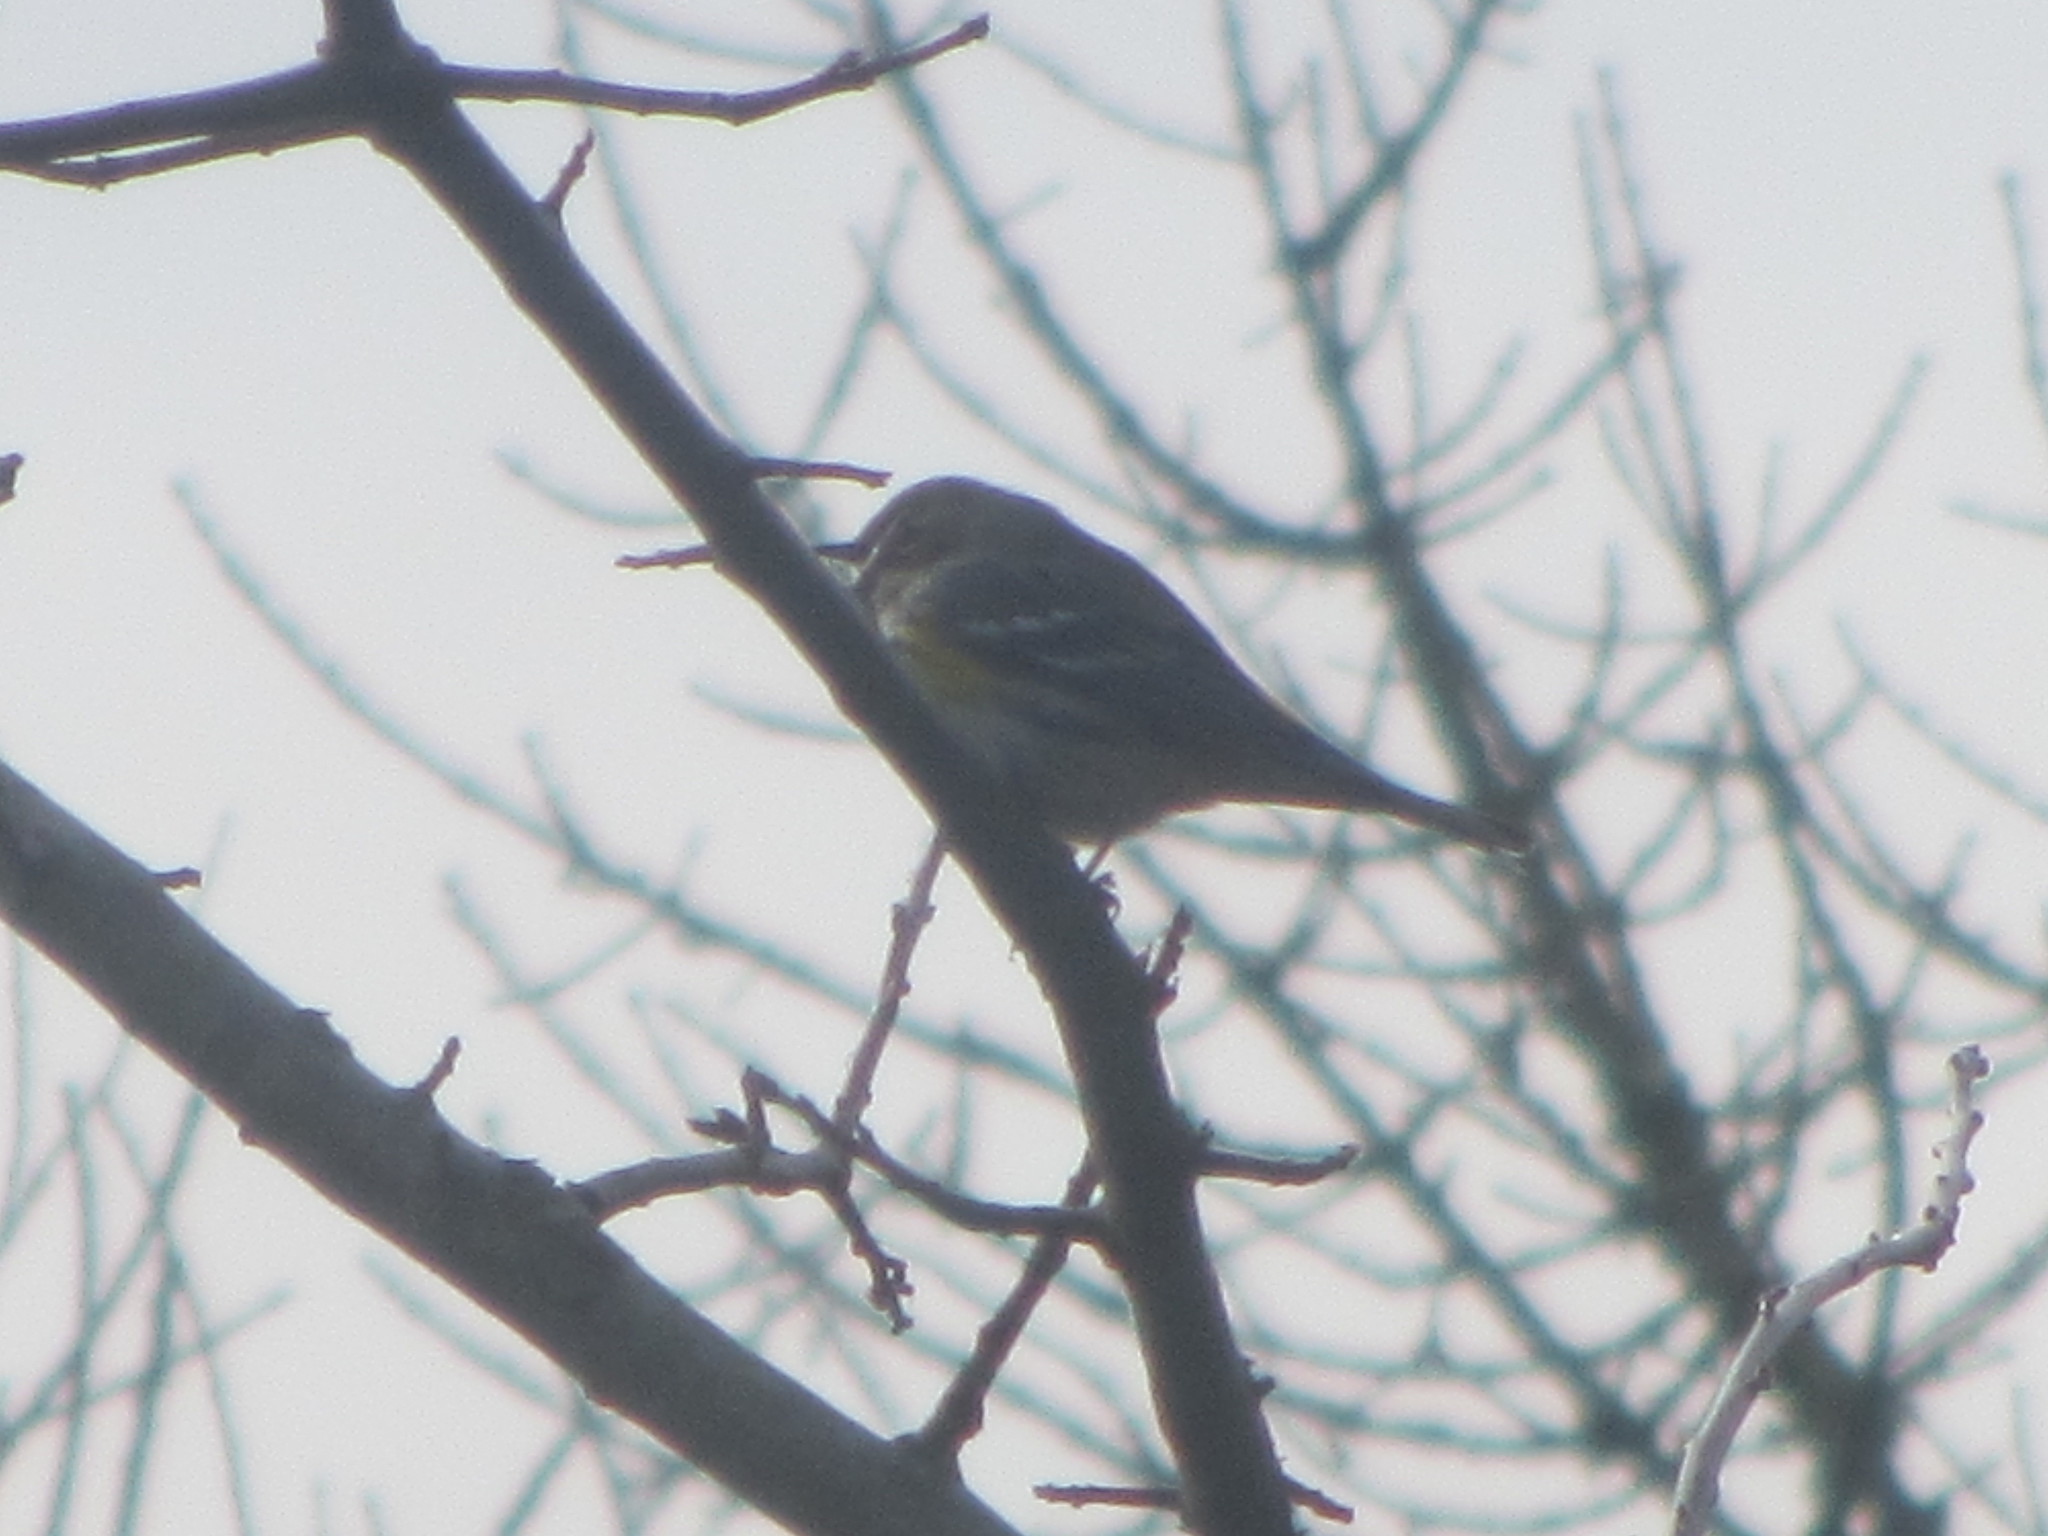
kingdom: Animalia
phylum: Chordata
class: Aves
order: Passeriformes
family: Parulidae
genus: Setophaga
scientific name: Setophaga coronata
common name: Myrtle warbler
